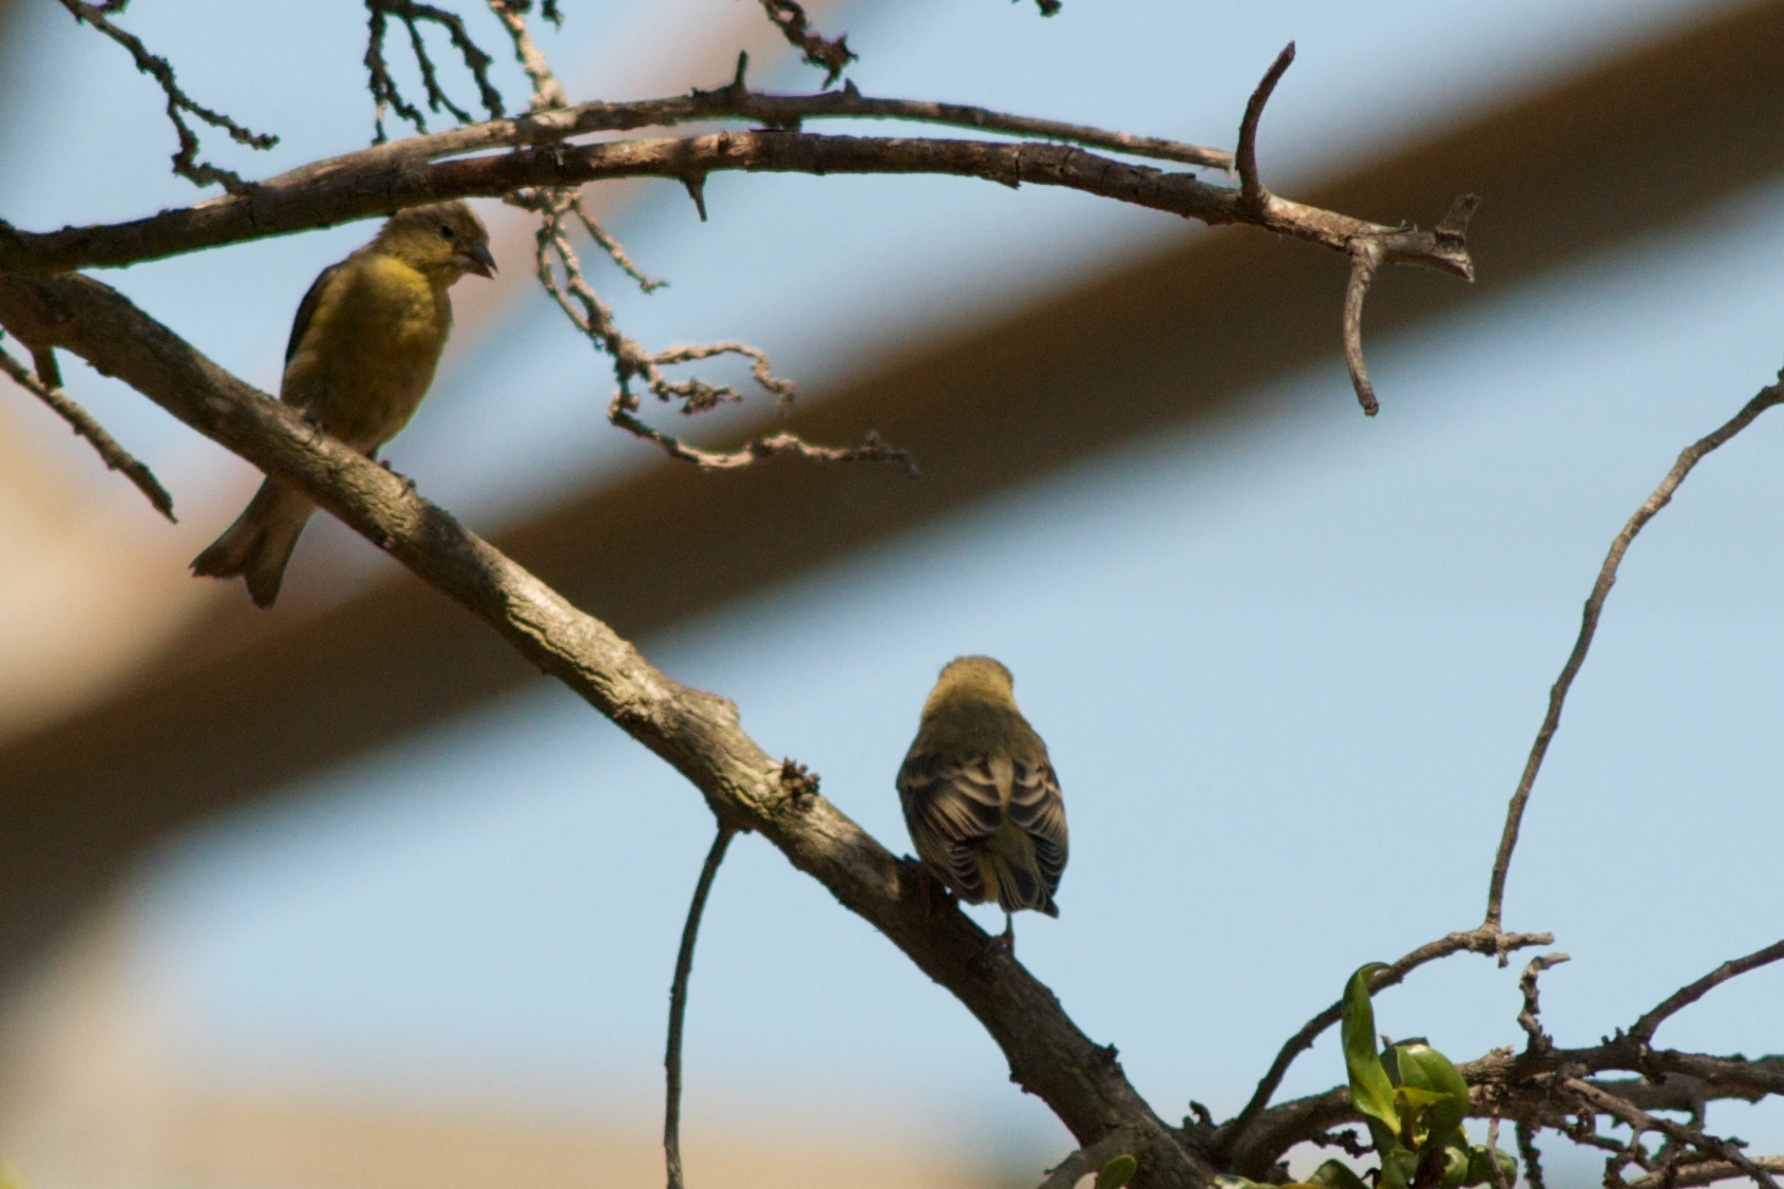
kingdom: Animalia
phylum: Chordata
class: Aves
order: Passeriformes
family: Fringillidae
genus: Spinus
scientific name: Spinus psaltria
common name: Lesser goldfinch
